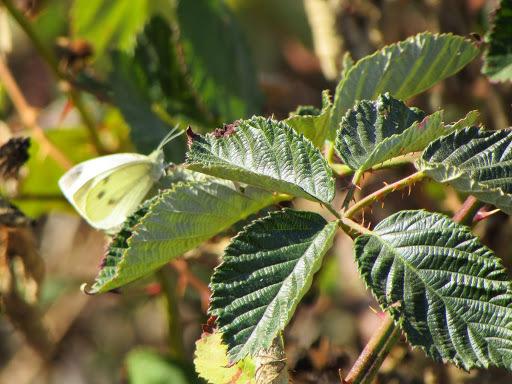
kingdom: Plantae
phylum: Tracheophyta
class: Magnoliopsida
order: Rosales
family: Rosaceae
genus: Rubus
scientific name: Rubus armeniacus
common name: Himalayan blackberry
